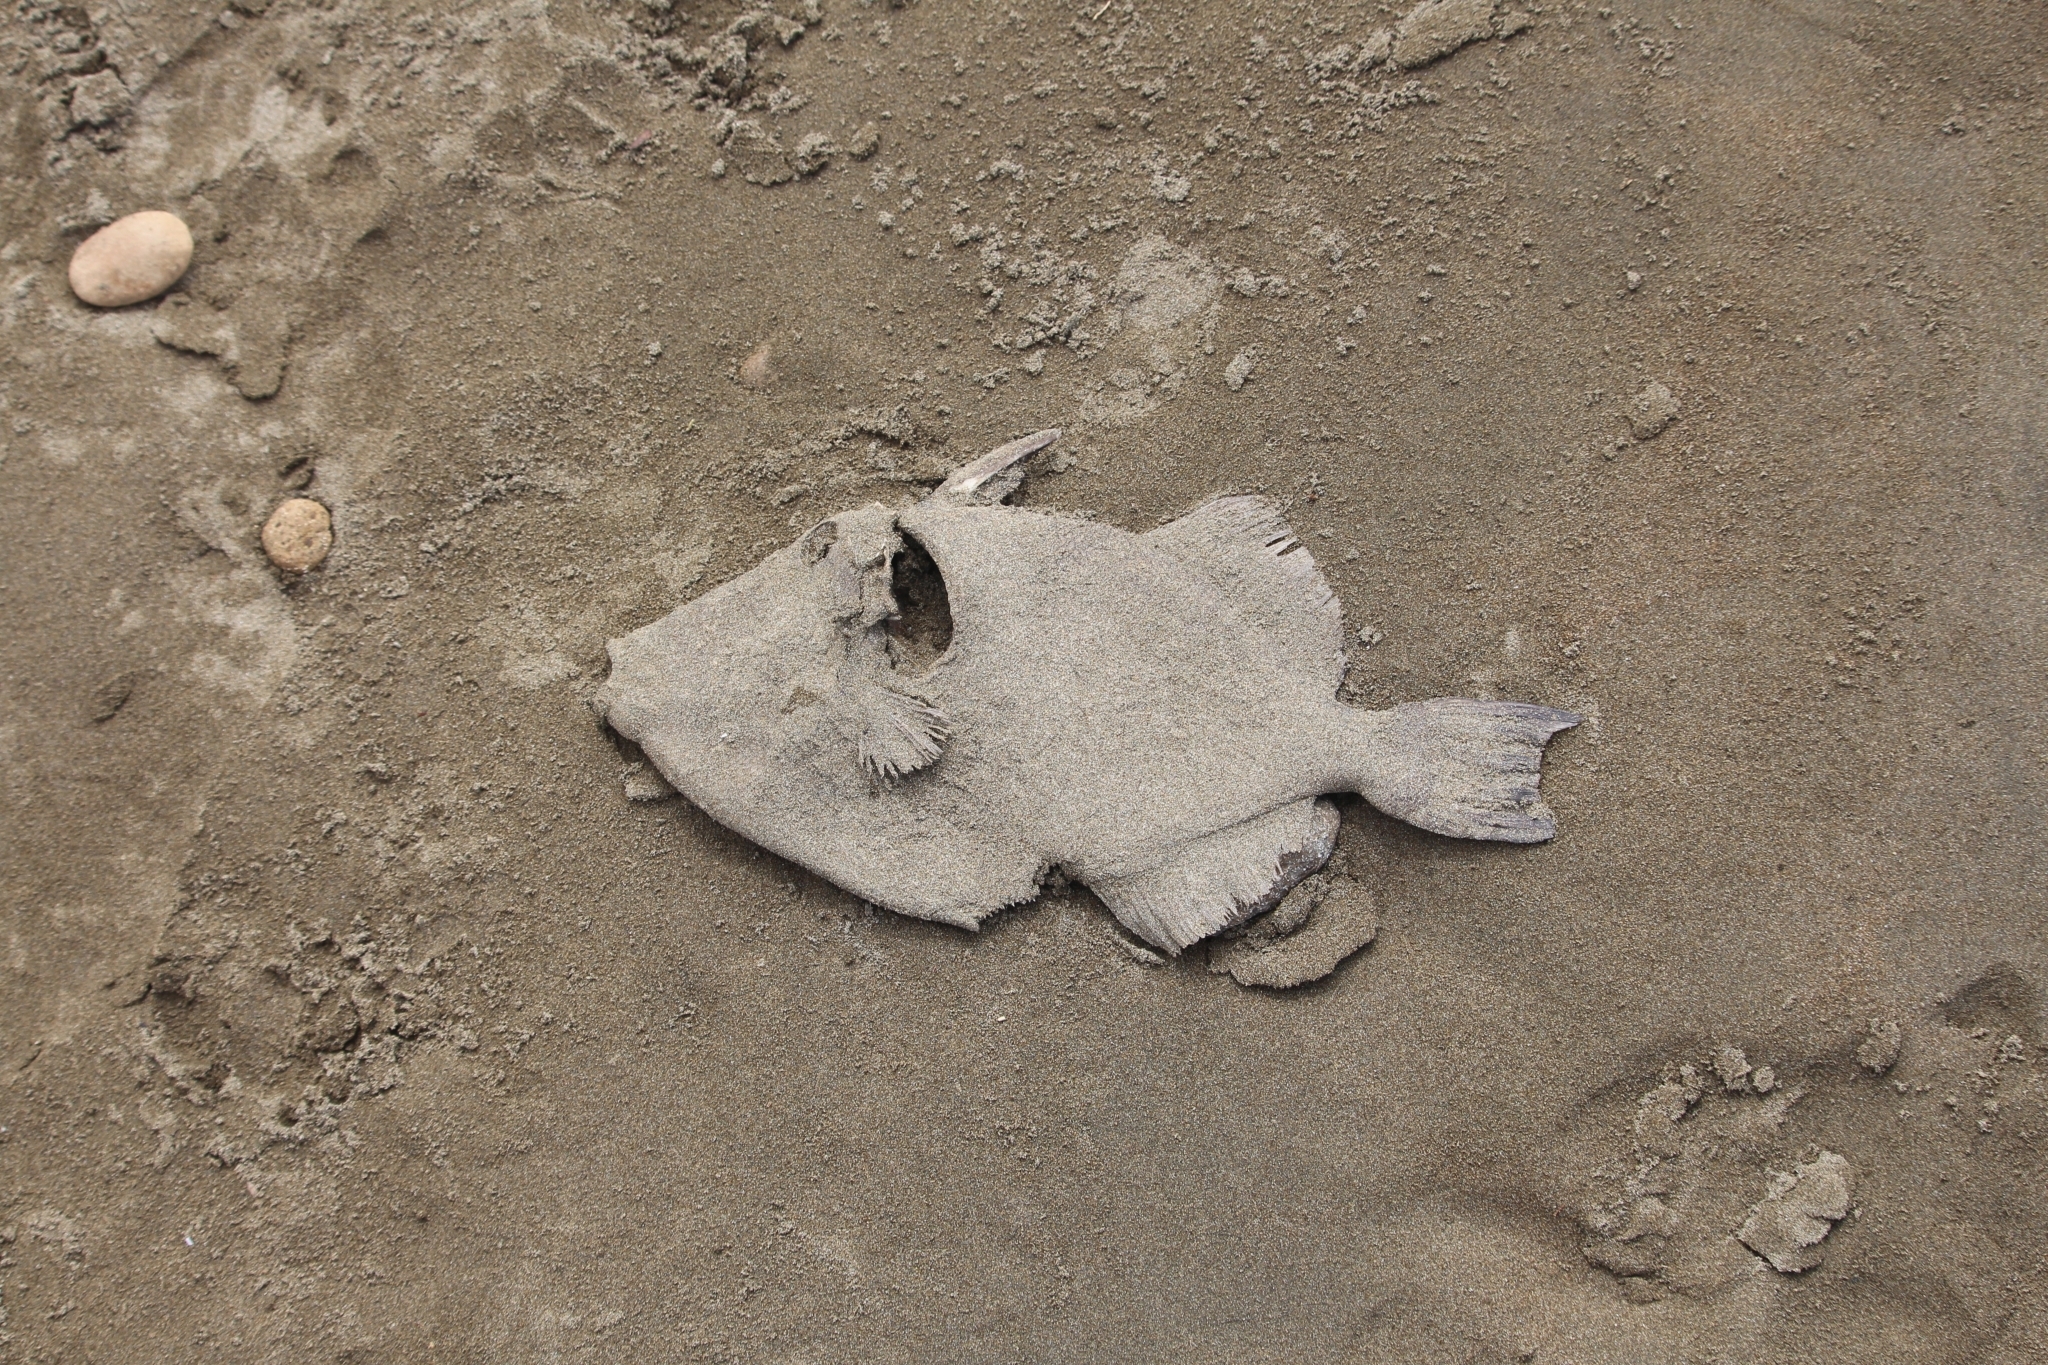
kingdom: Animalia
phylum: Chordata
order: Tetraodontiformes
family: Balistidae
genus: Balistes
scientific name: Balistes polylepis
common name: Finescale triggerfish
